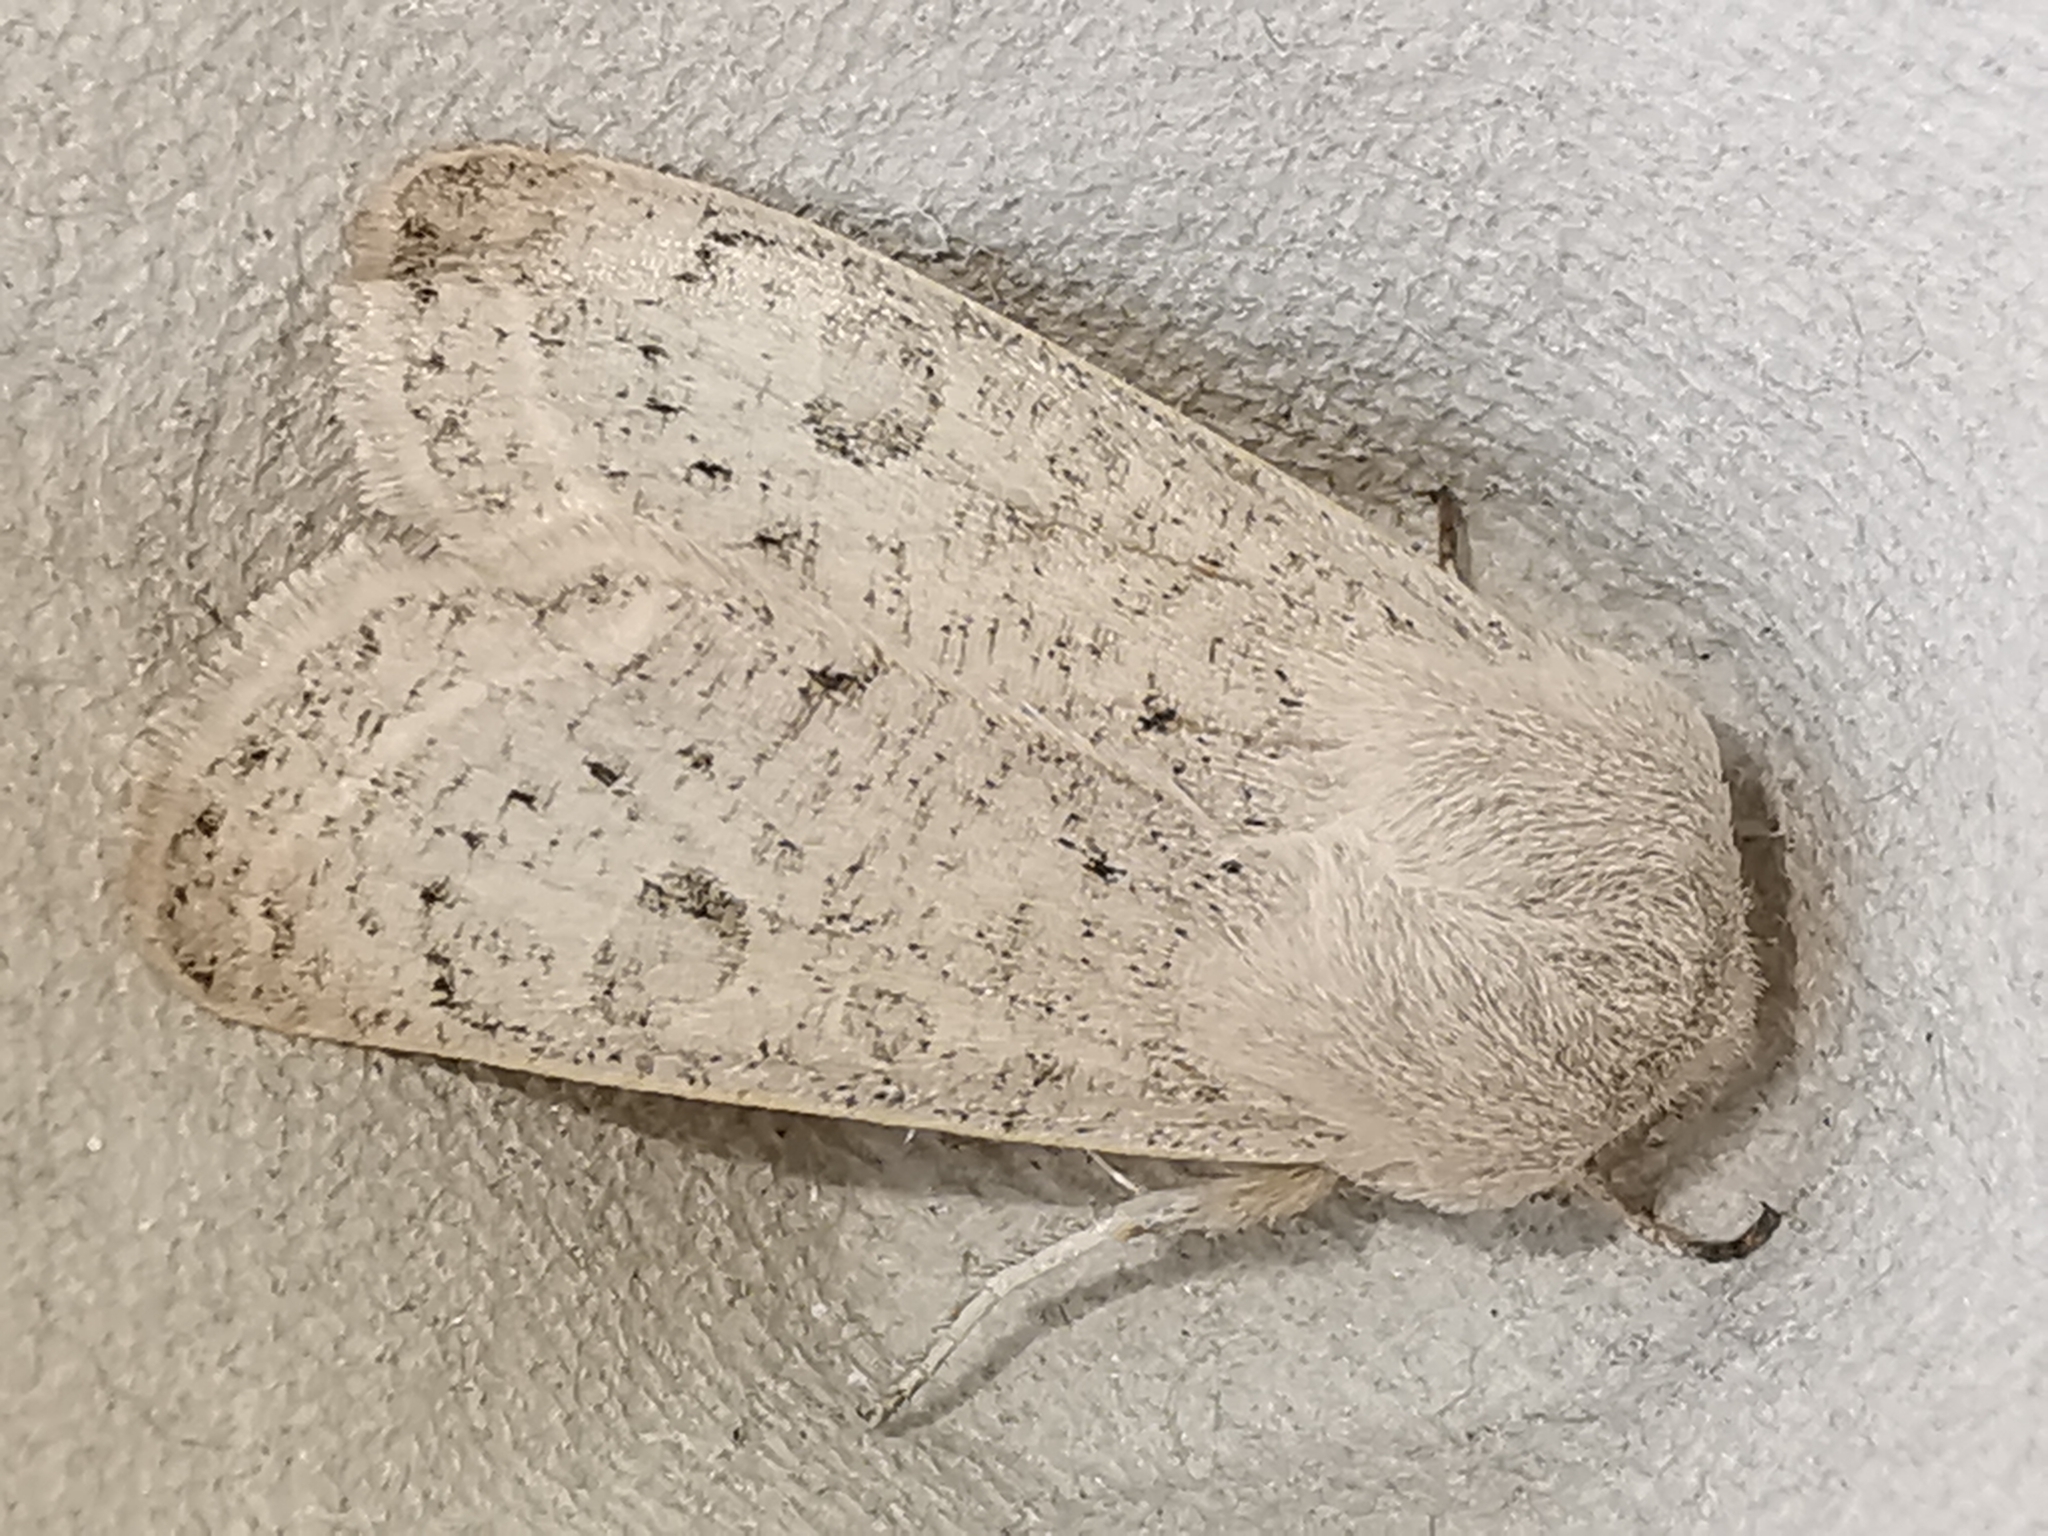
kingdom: Animalia
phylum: Arthropoda
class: Insecta
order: Lepidoptera
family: Noctuidae
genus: Orthosia
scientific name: Orthosia gracilis
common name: Powdered quaker
